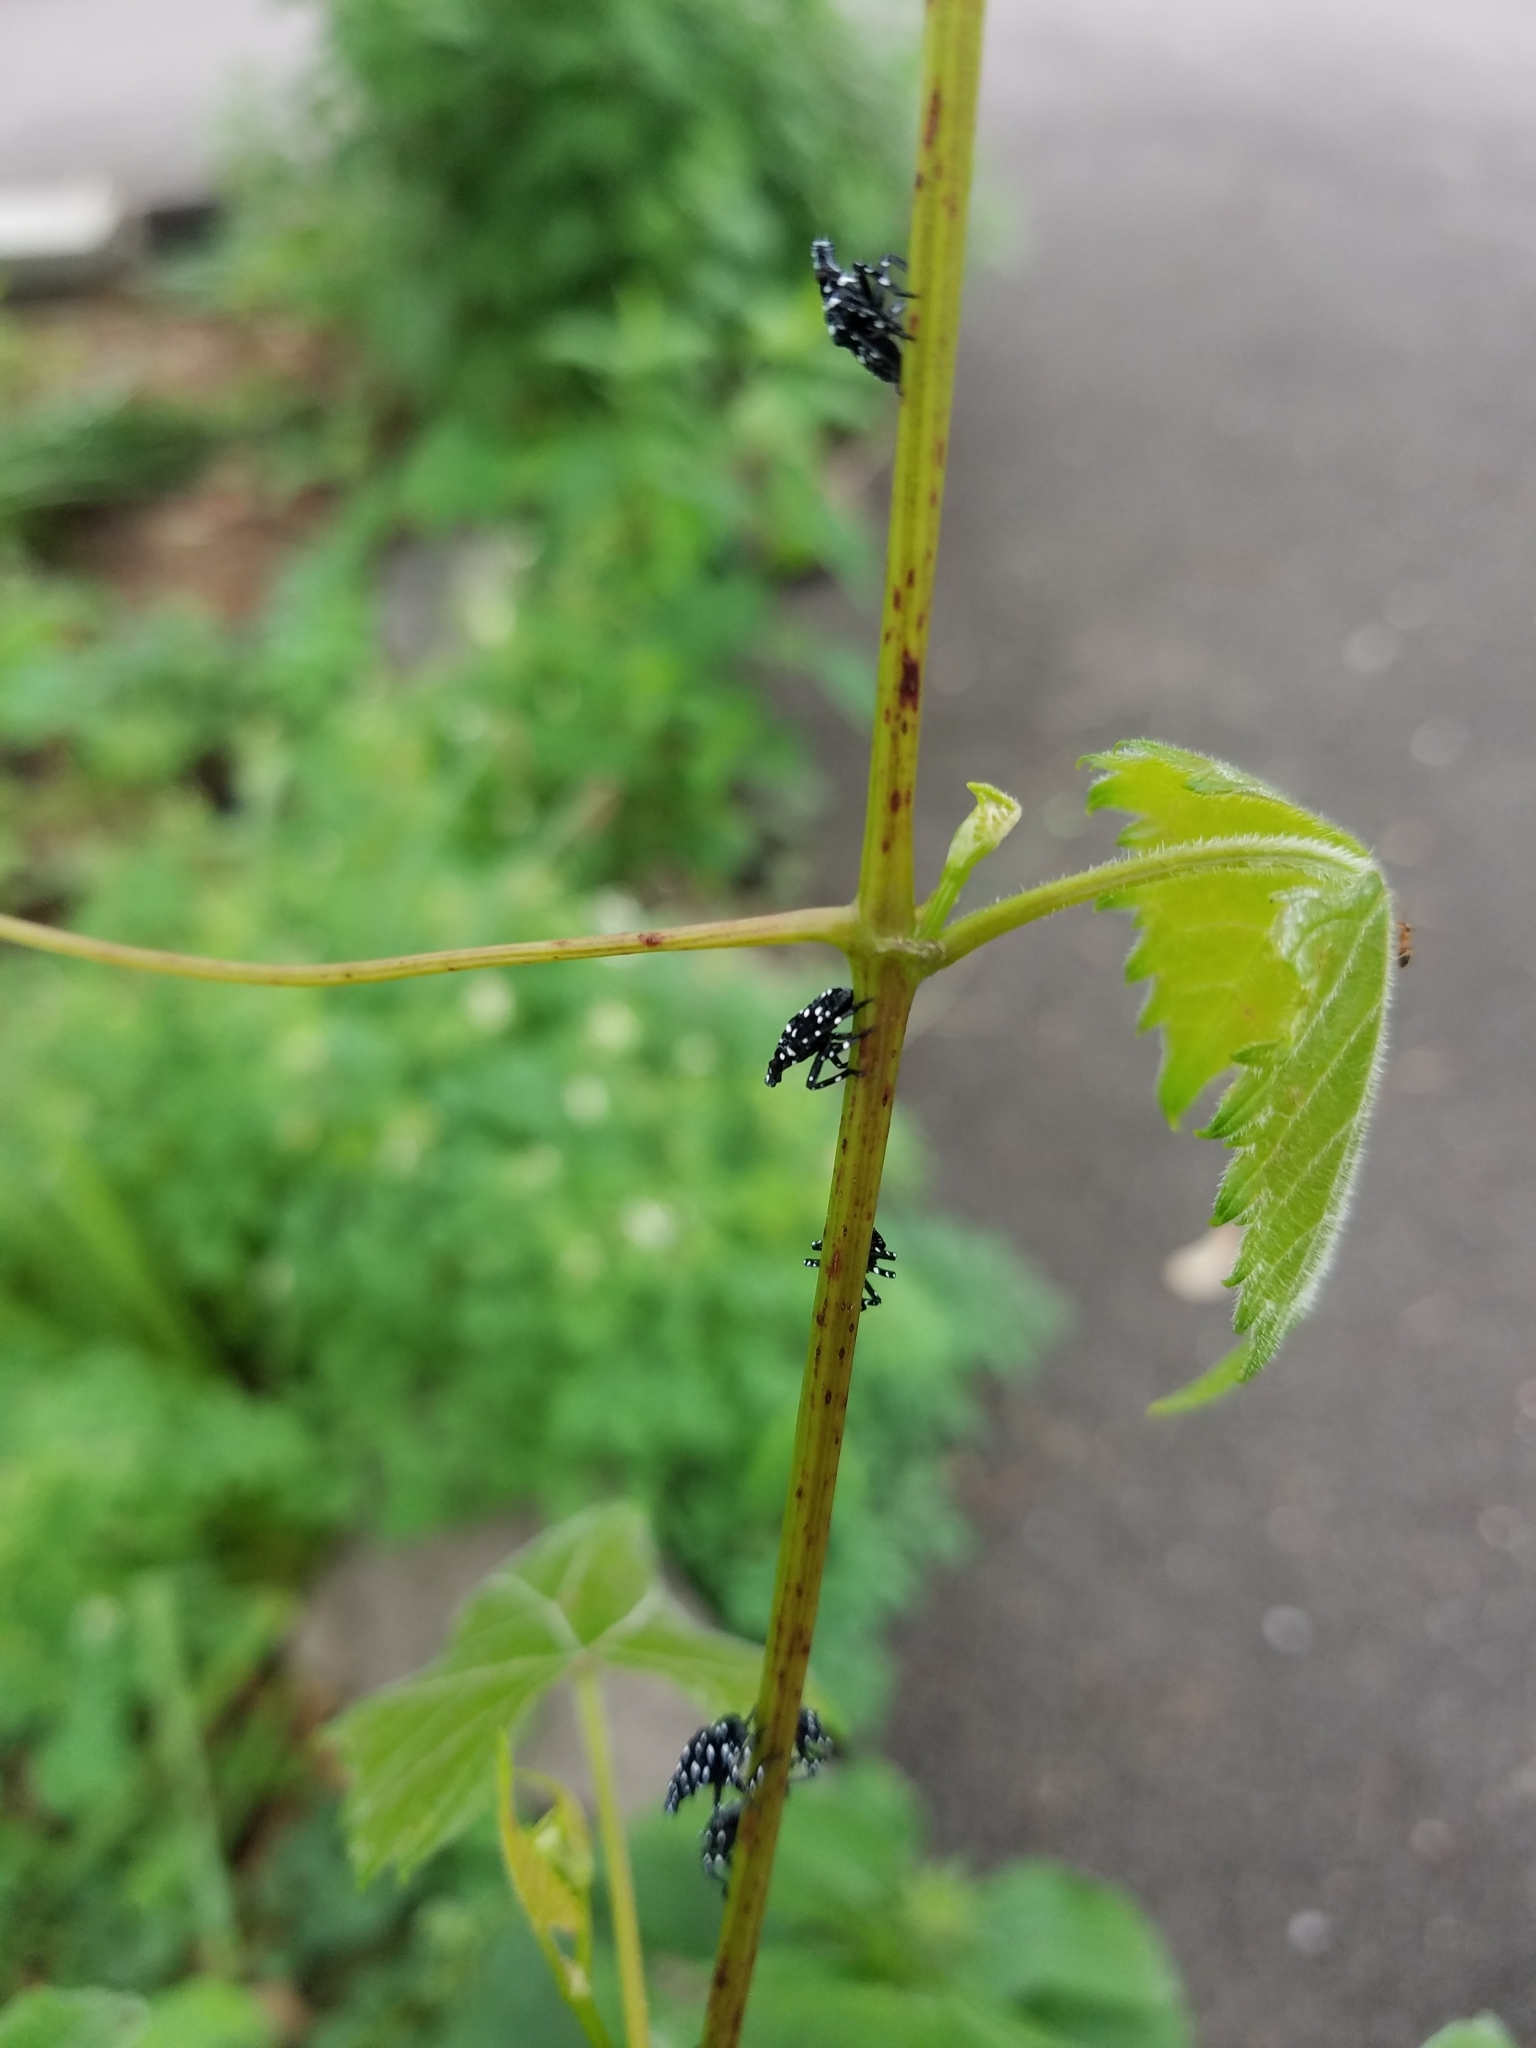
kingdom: Animalia
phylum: Arthropoda
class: Insecta
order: Hemiptera
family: Fulgoridae
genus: Lycorma
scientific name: Lycorma delicatula
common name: Spotted lanternfly
